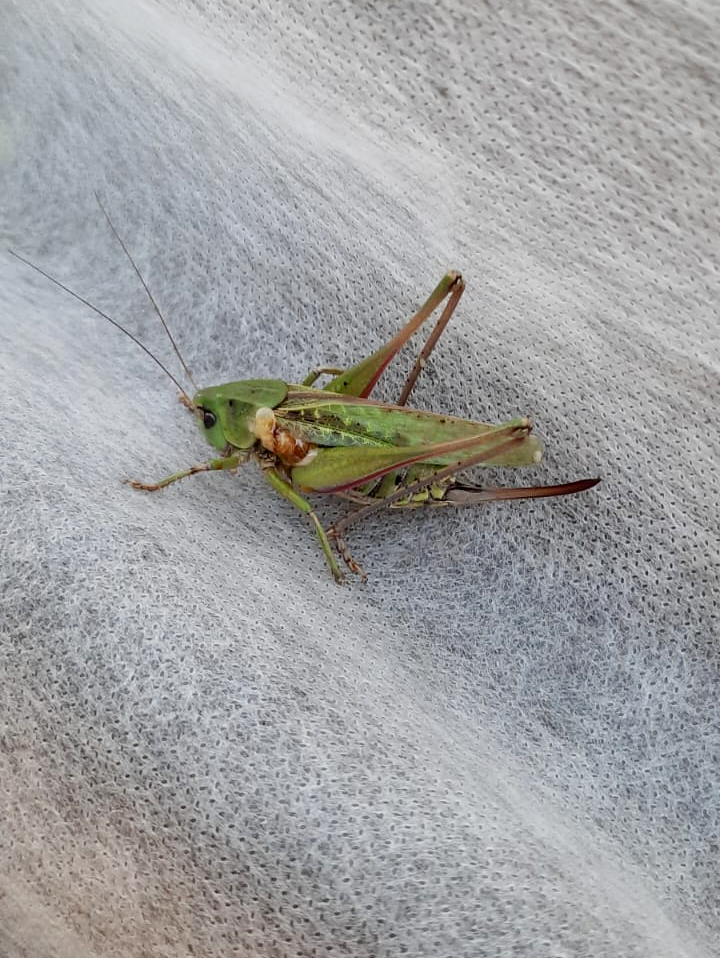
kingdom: Animalia
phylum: Arthropoda
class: Insecta
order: Orthoptera
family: Tettigoniidae
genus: Decticus
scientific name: Decticus verrucivorus
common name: Wart-biter
